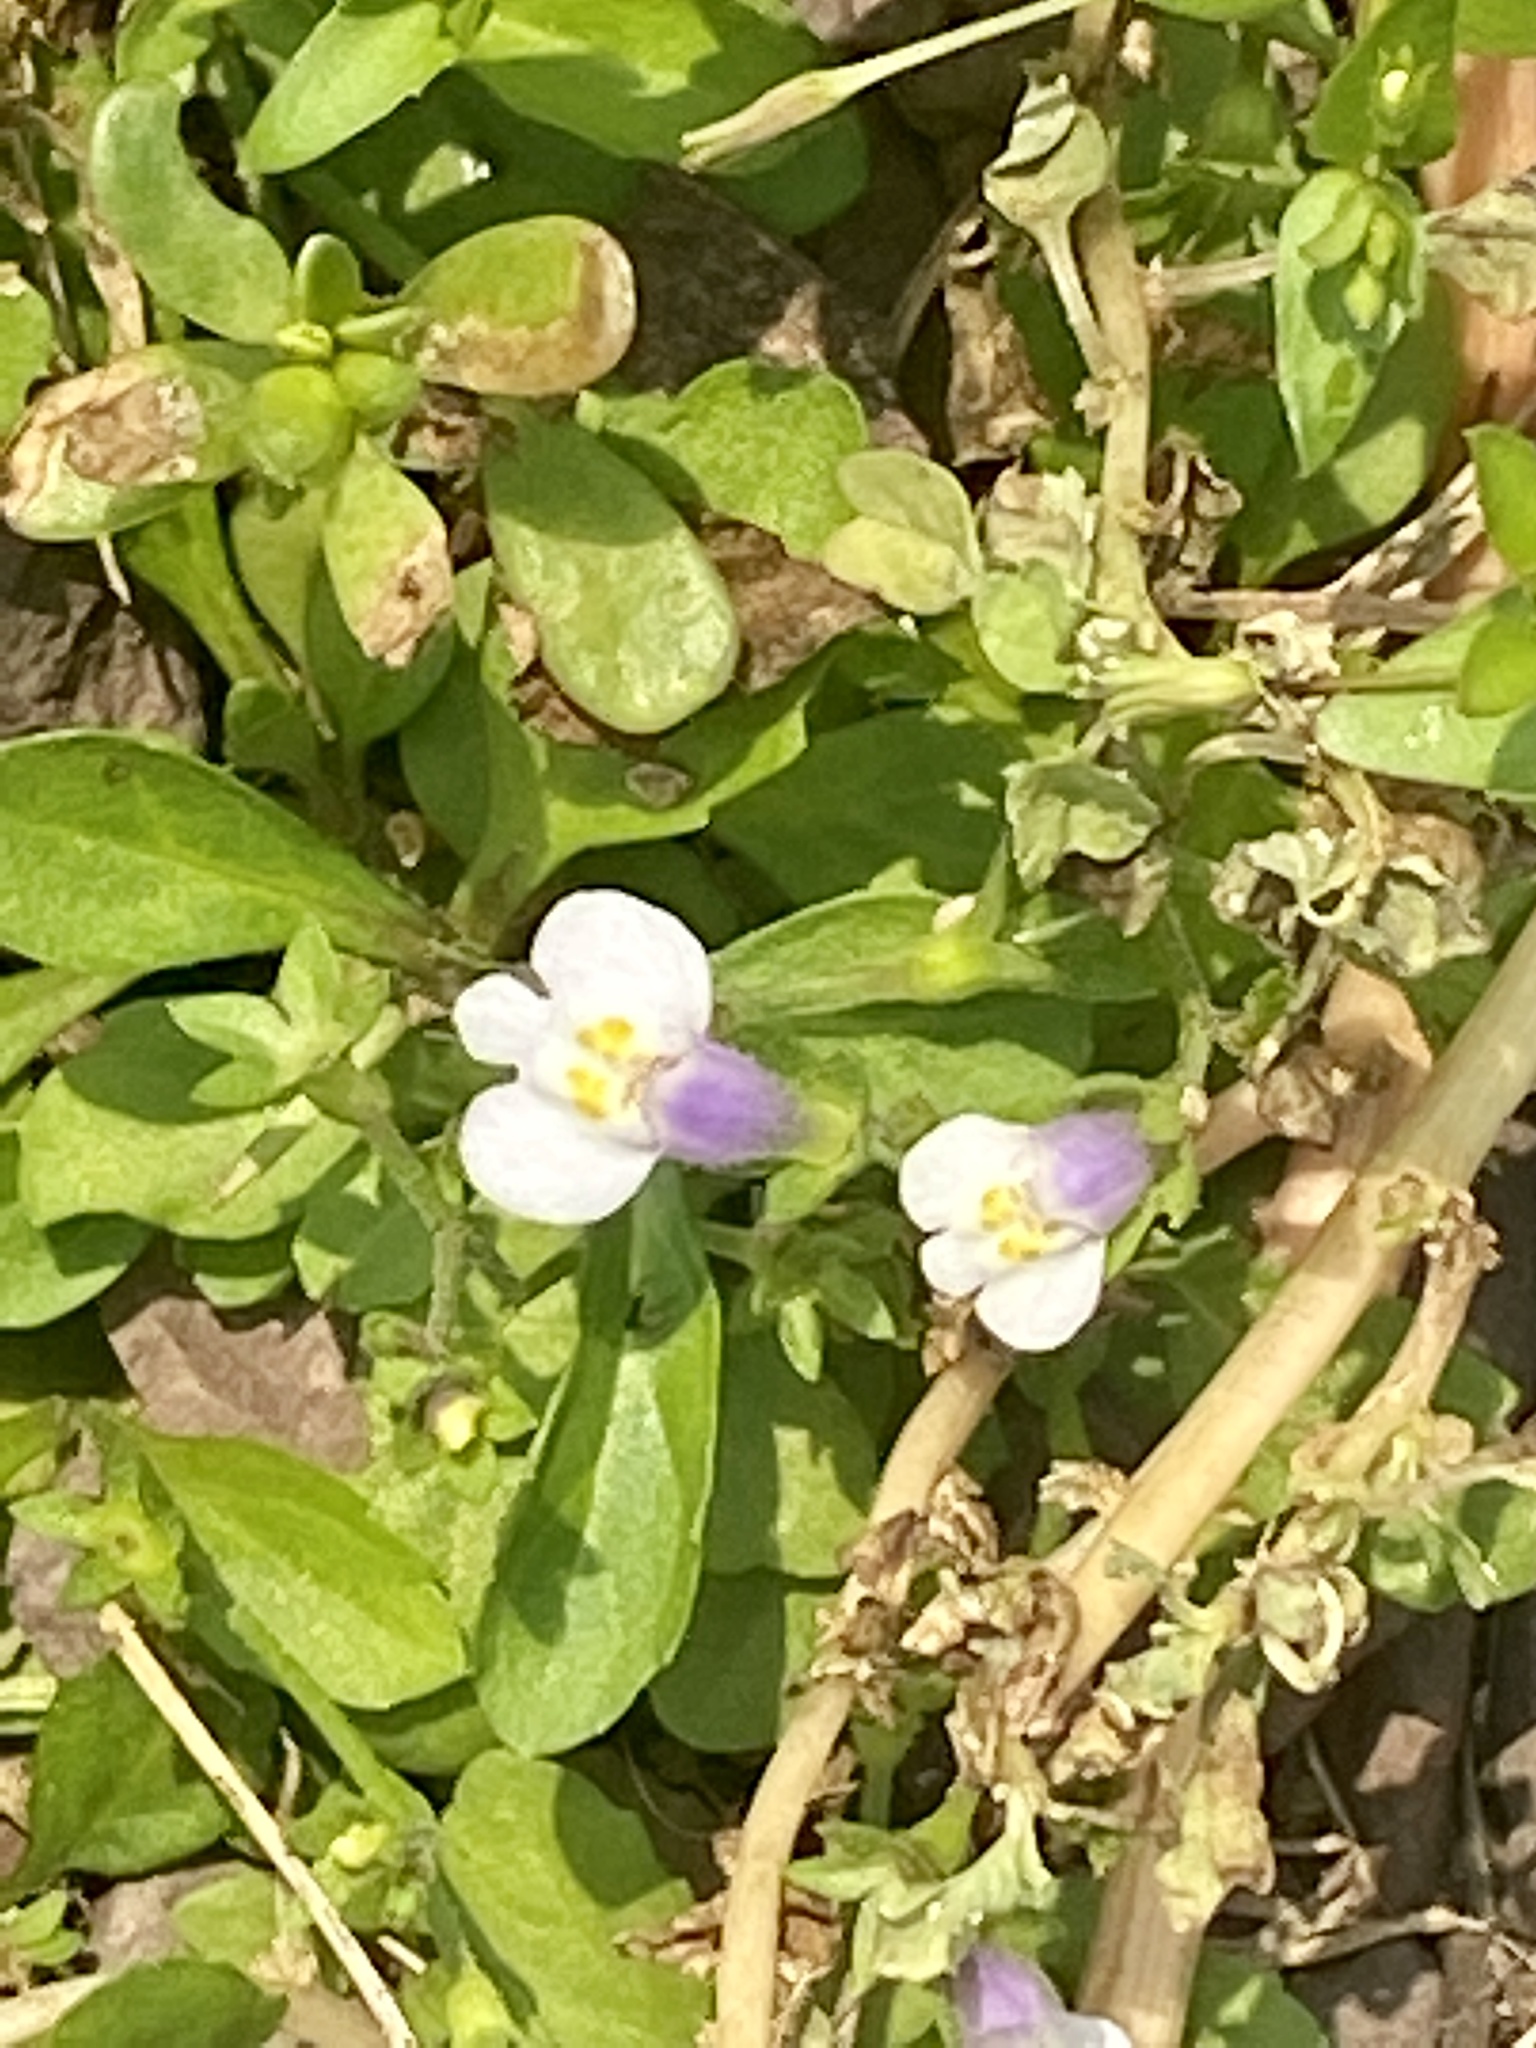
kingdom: Plantae
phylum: Tracheophyta
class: Magnoliopsida
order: Lamiales
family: Mazaceae
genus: Mazus
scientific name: Mazus pumilus
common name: Japanese mazus
